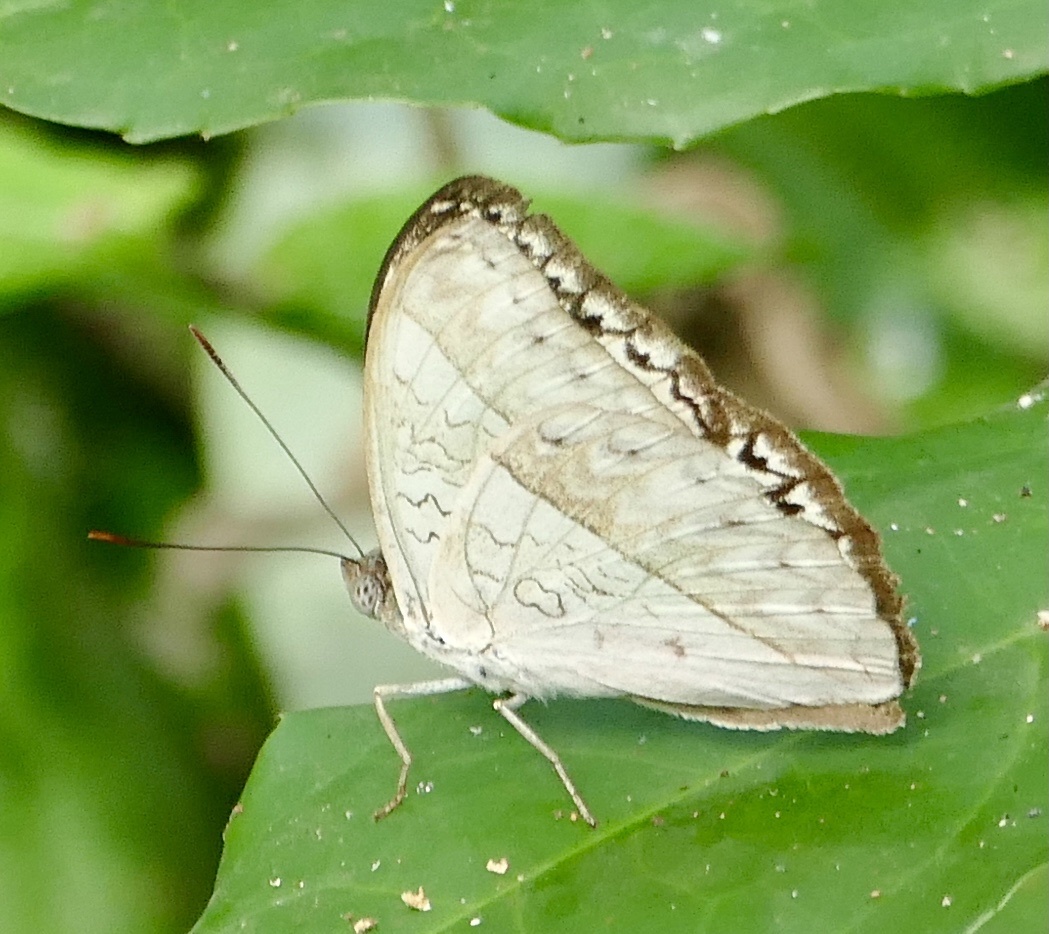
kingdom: Animalia
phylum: Arthropoda
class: Insecta
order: Lepidoptera
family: Nymphalidae
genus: Cymothoe
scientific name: Cymothoe druryi
